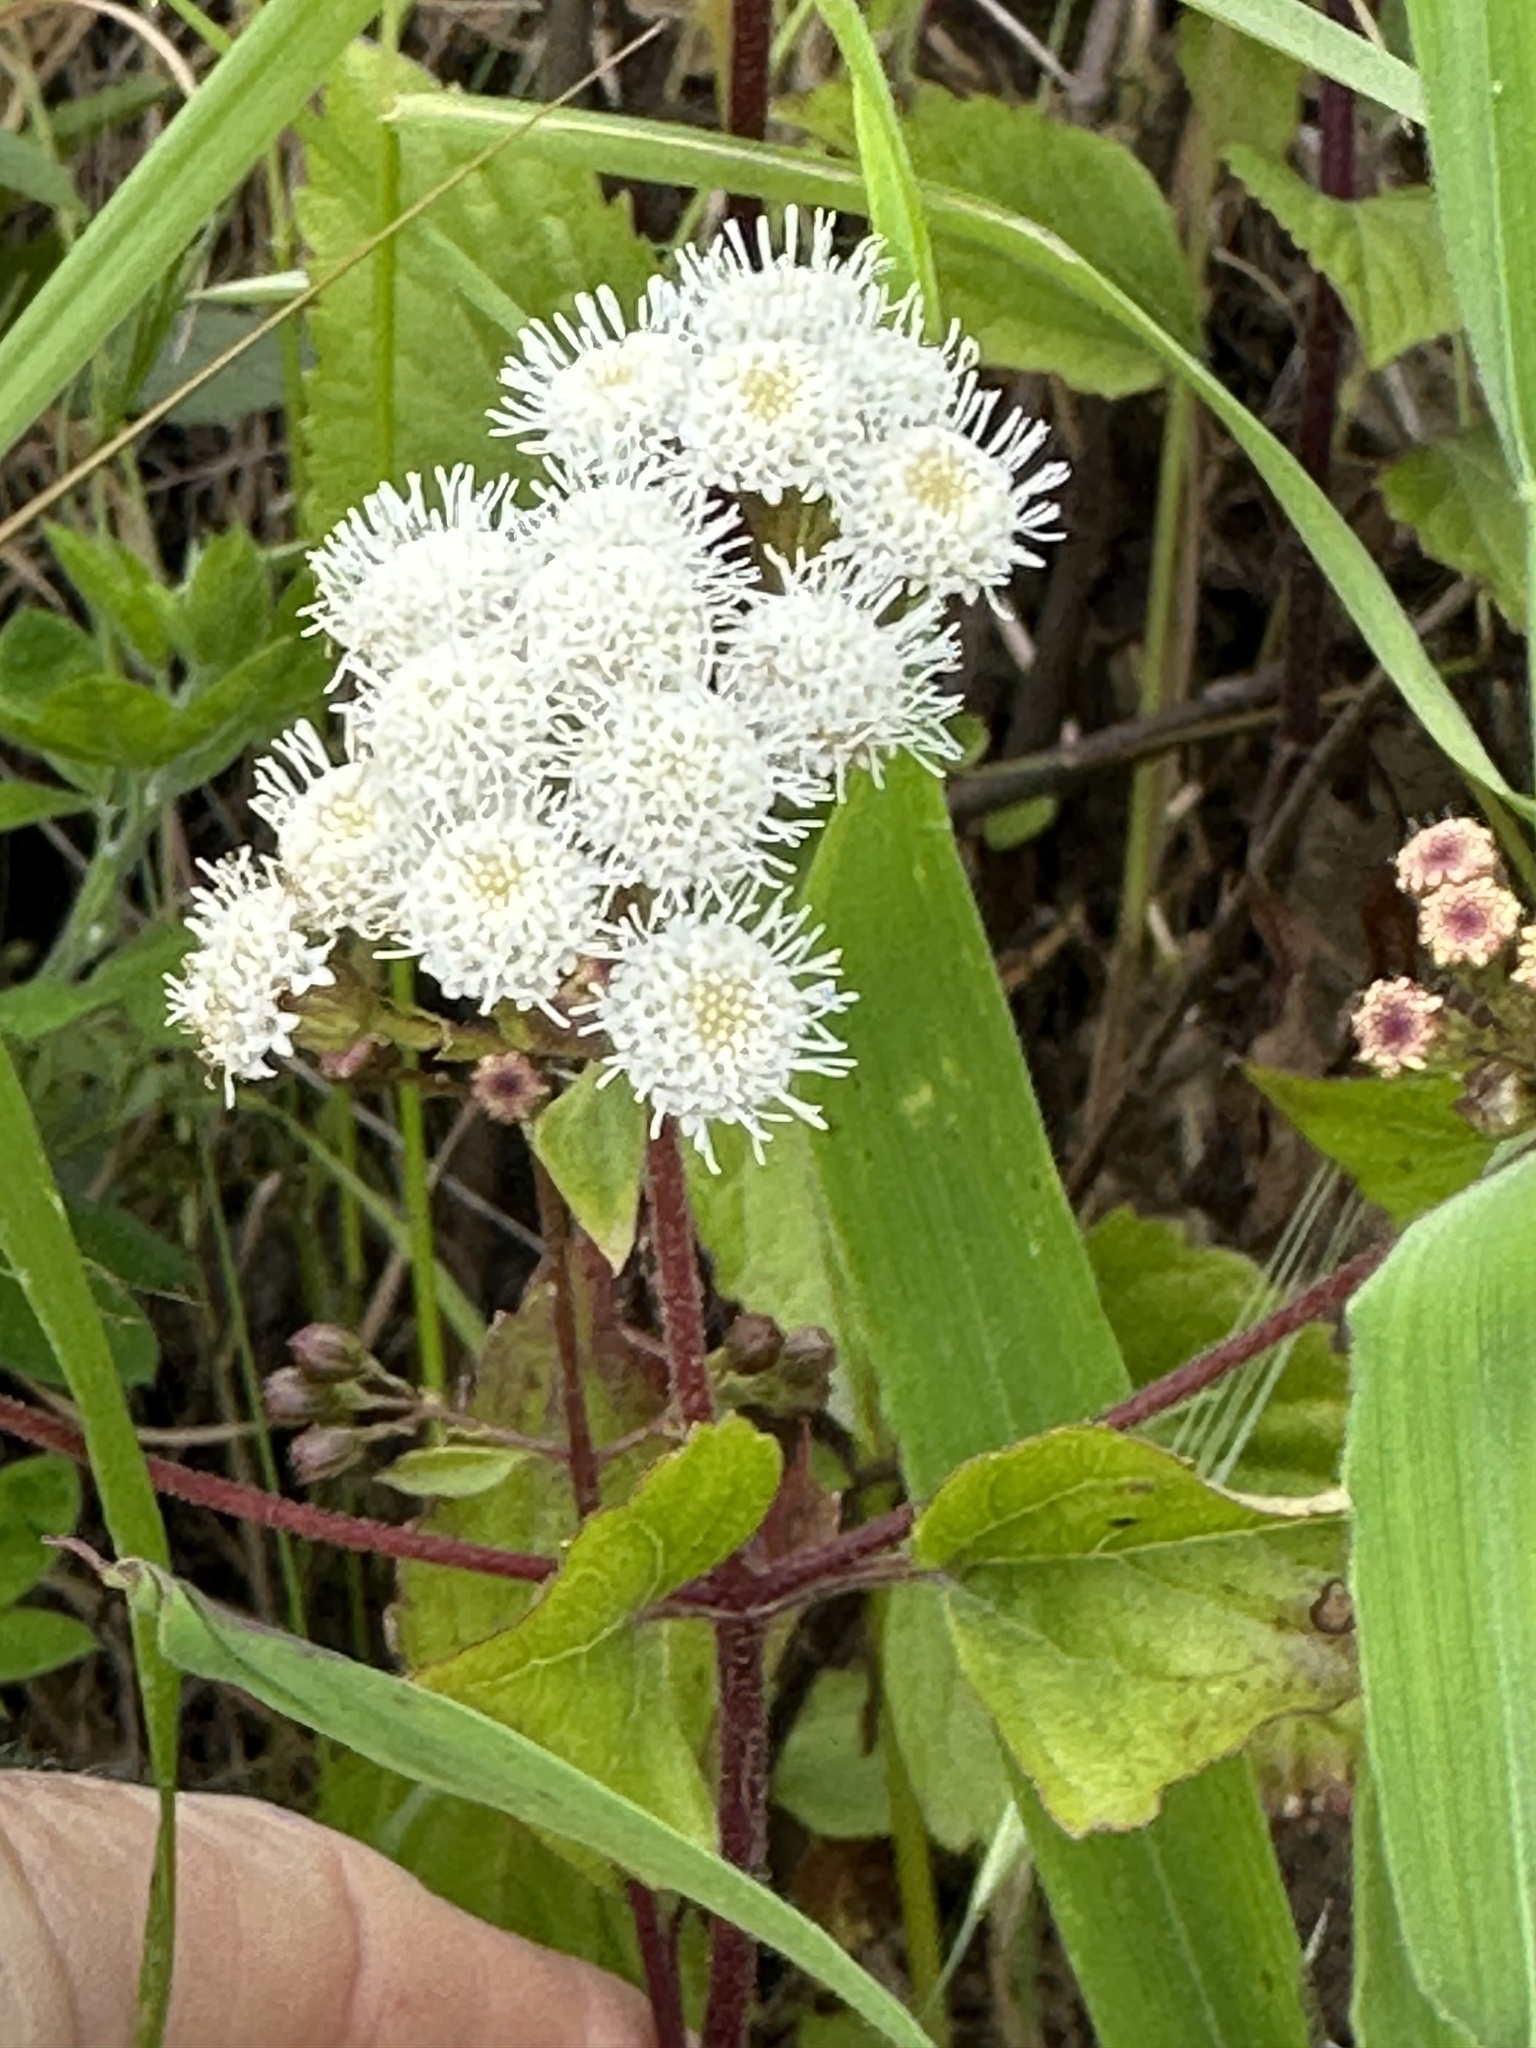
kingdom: Plantae
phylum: Tracheophyta
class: Magnoliopsida
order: Asterales
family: Asteraceae
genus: Ageratina
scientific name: Ageratina adenophora
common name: Sticky snakeroot
